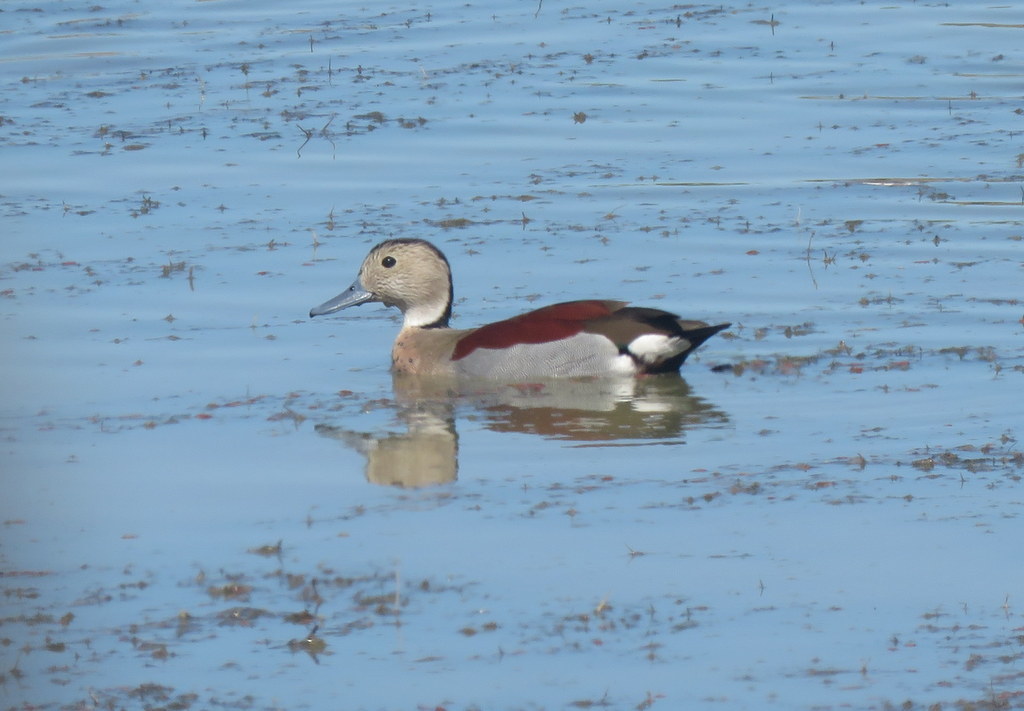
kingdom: Animalia
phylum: Chordata
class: Aves
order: Anseriformes
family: Anatidae
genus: Callonetta
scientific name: Callonetta leucophrys
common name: Ringed teal
